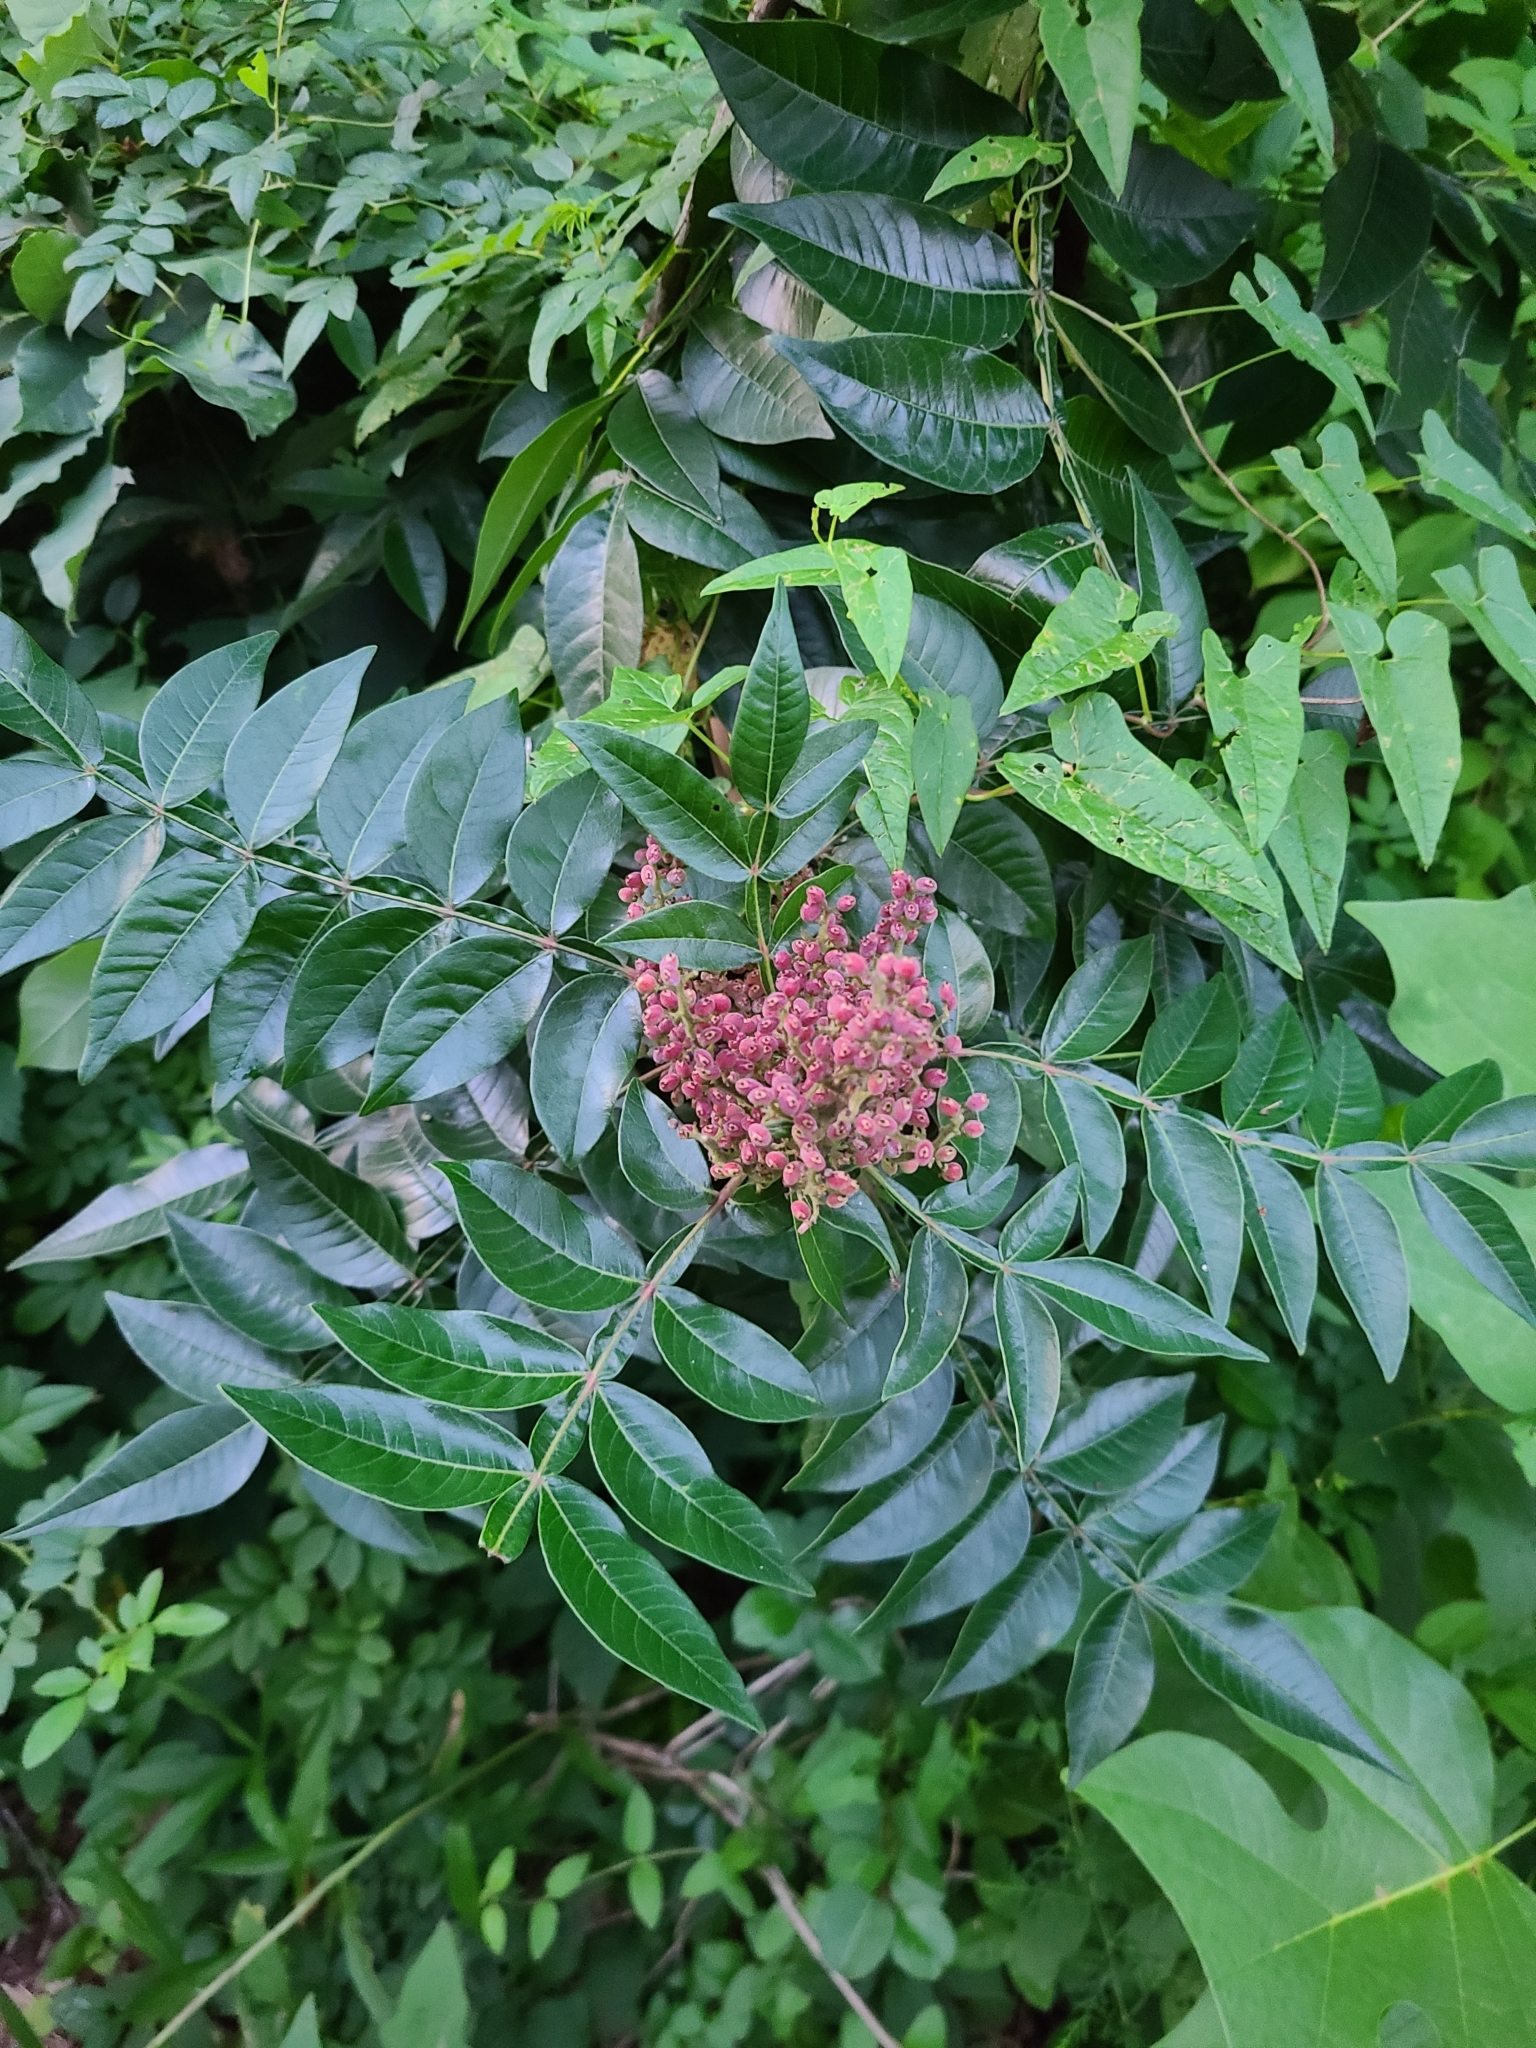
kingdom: Plantae
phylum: Tracheophyta
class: Magnoliopsida
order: Sapindales
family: Anacardiaceae
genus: Rhus
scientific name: Rhus copallina
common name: Shining sumac
